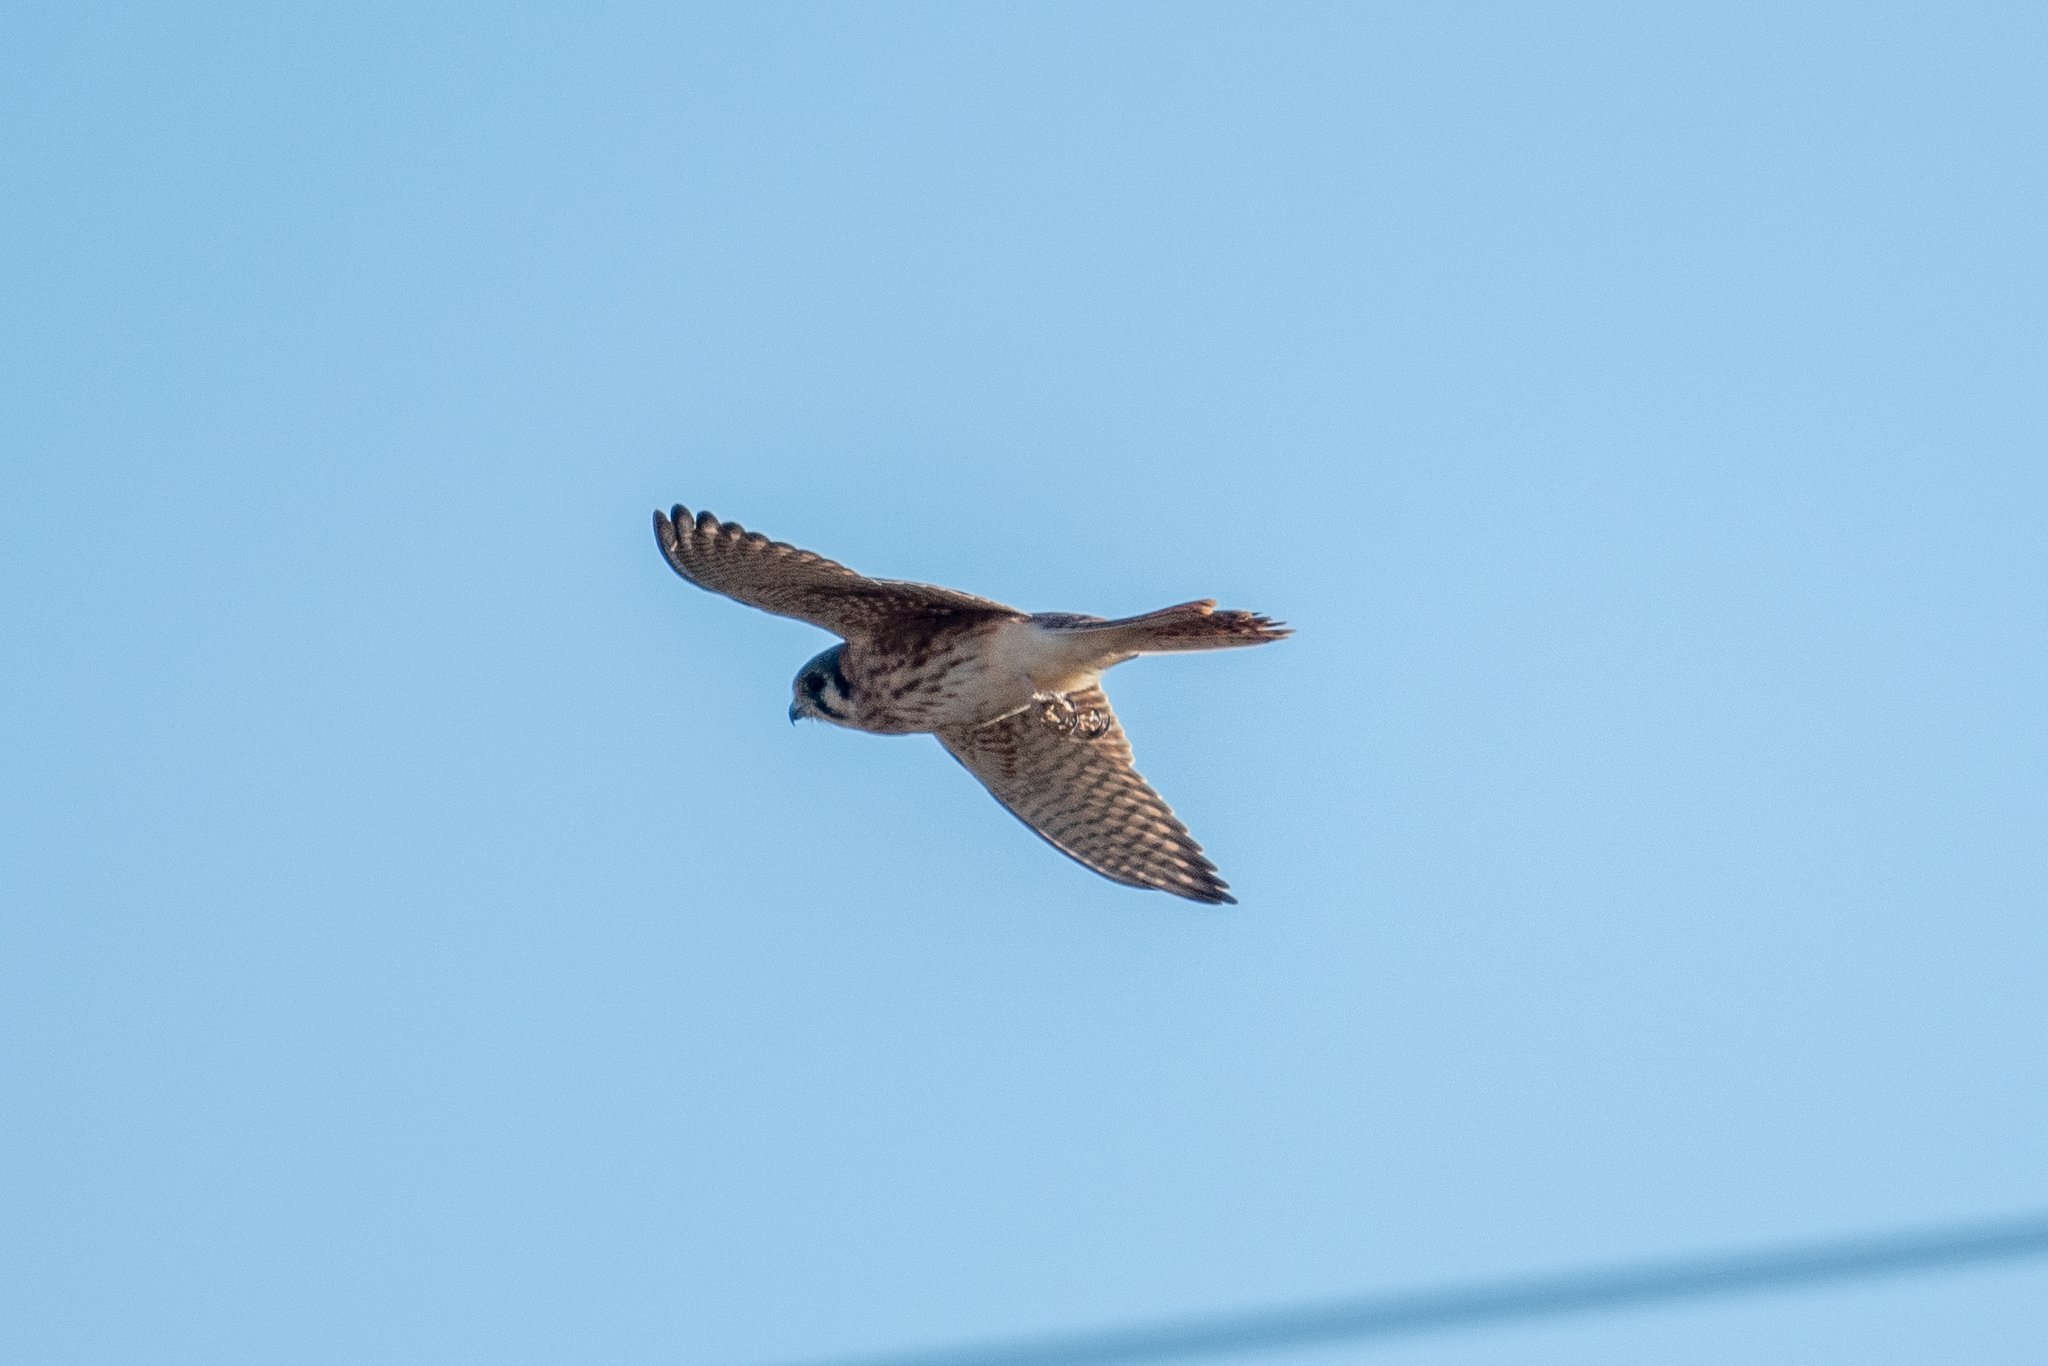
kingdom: Animalia
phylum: Chordata
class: Aves
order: Falconiformes
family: Falconidae
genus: Falco
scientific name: Falco sparverius
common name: American kestrel
